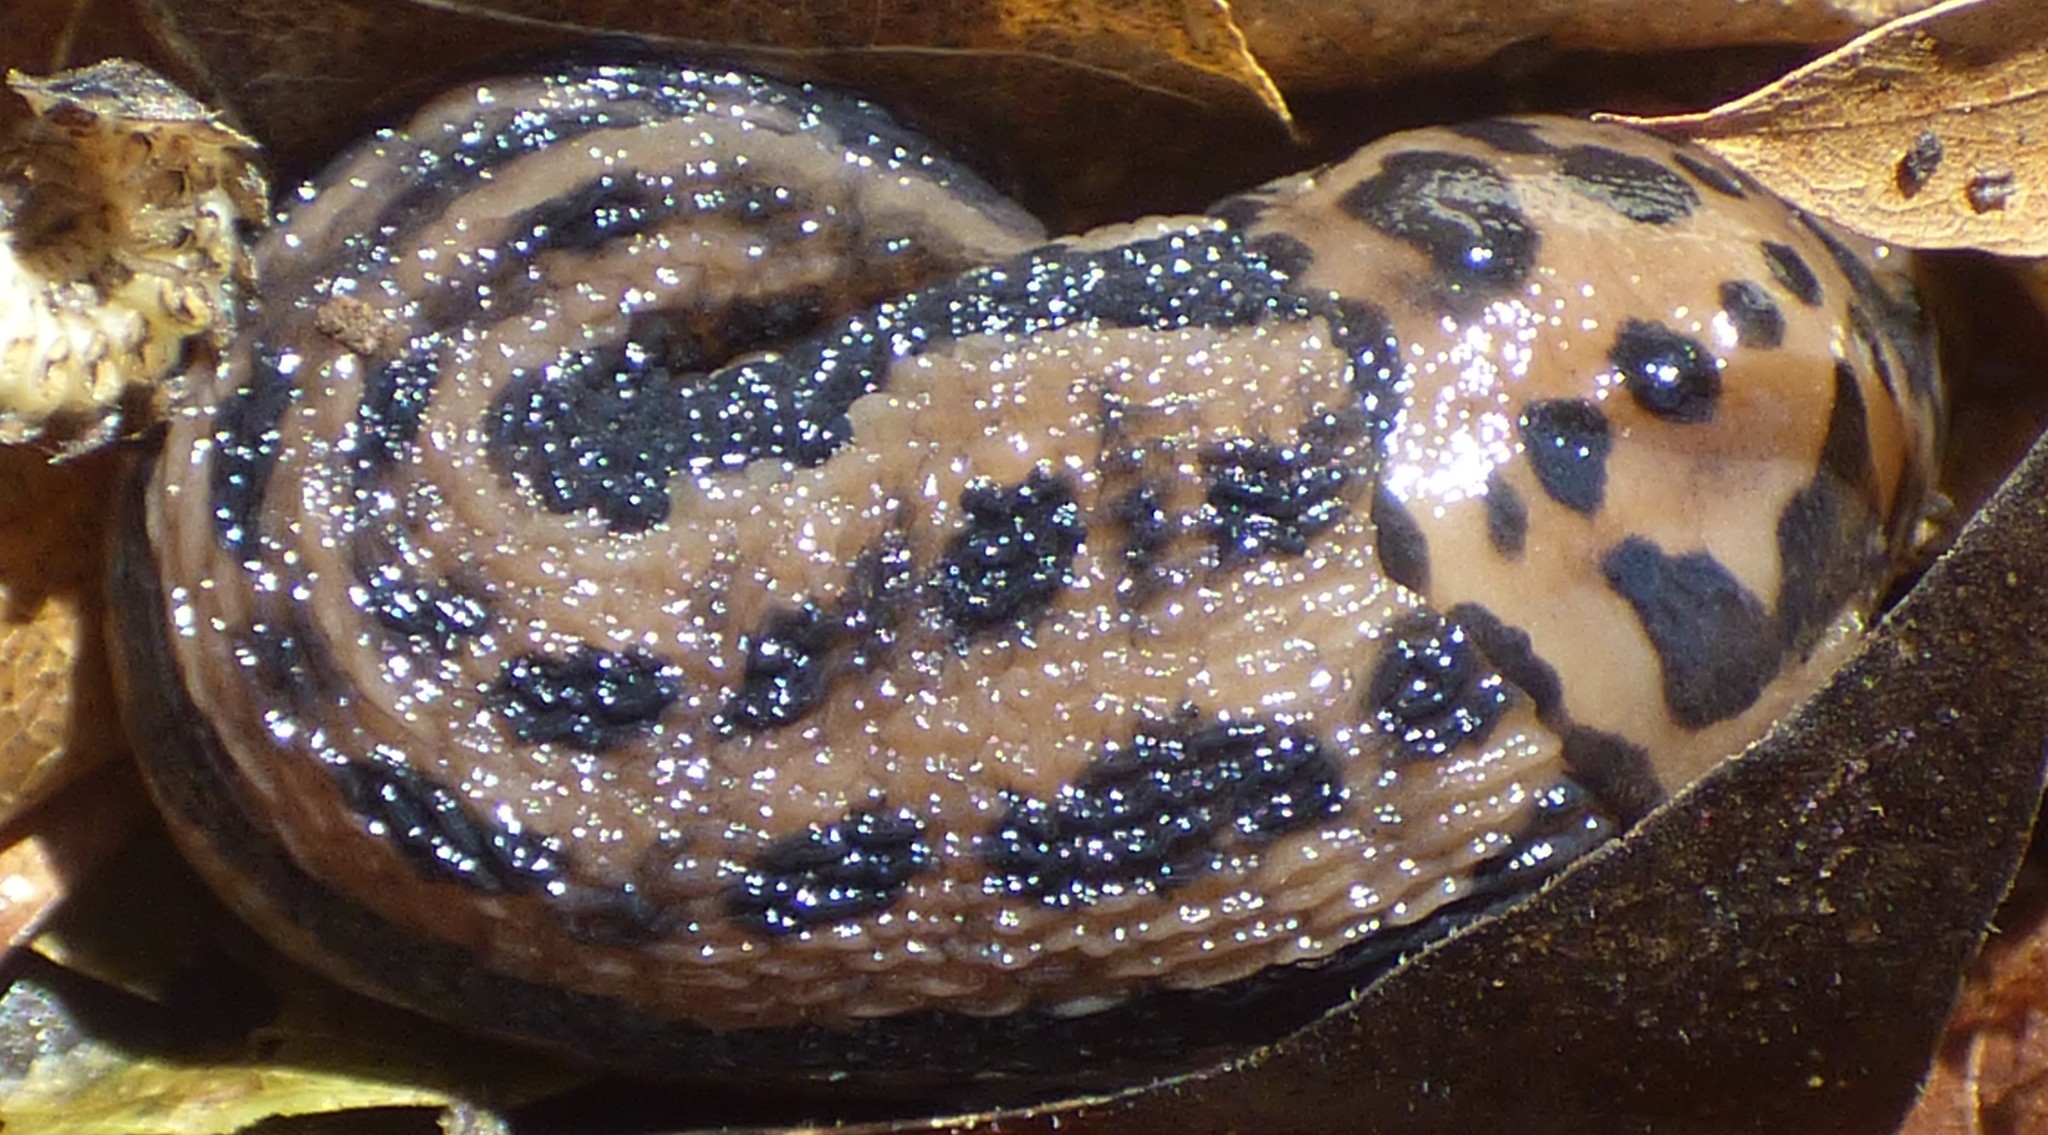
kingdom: Animalia
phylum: Mollusca
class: Gastropoda
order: Stylommatophora
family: Limacidae
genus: Limax
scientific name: Limax maximus
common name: Great grey slug
